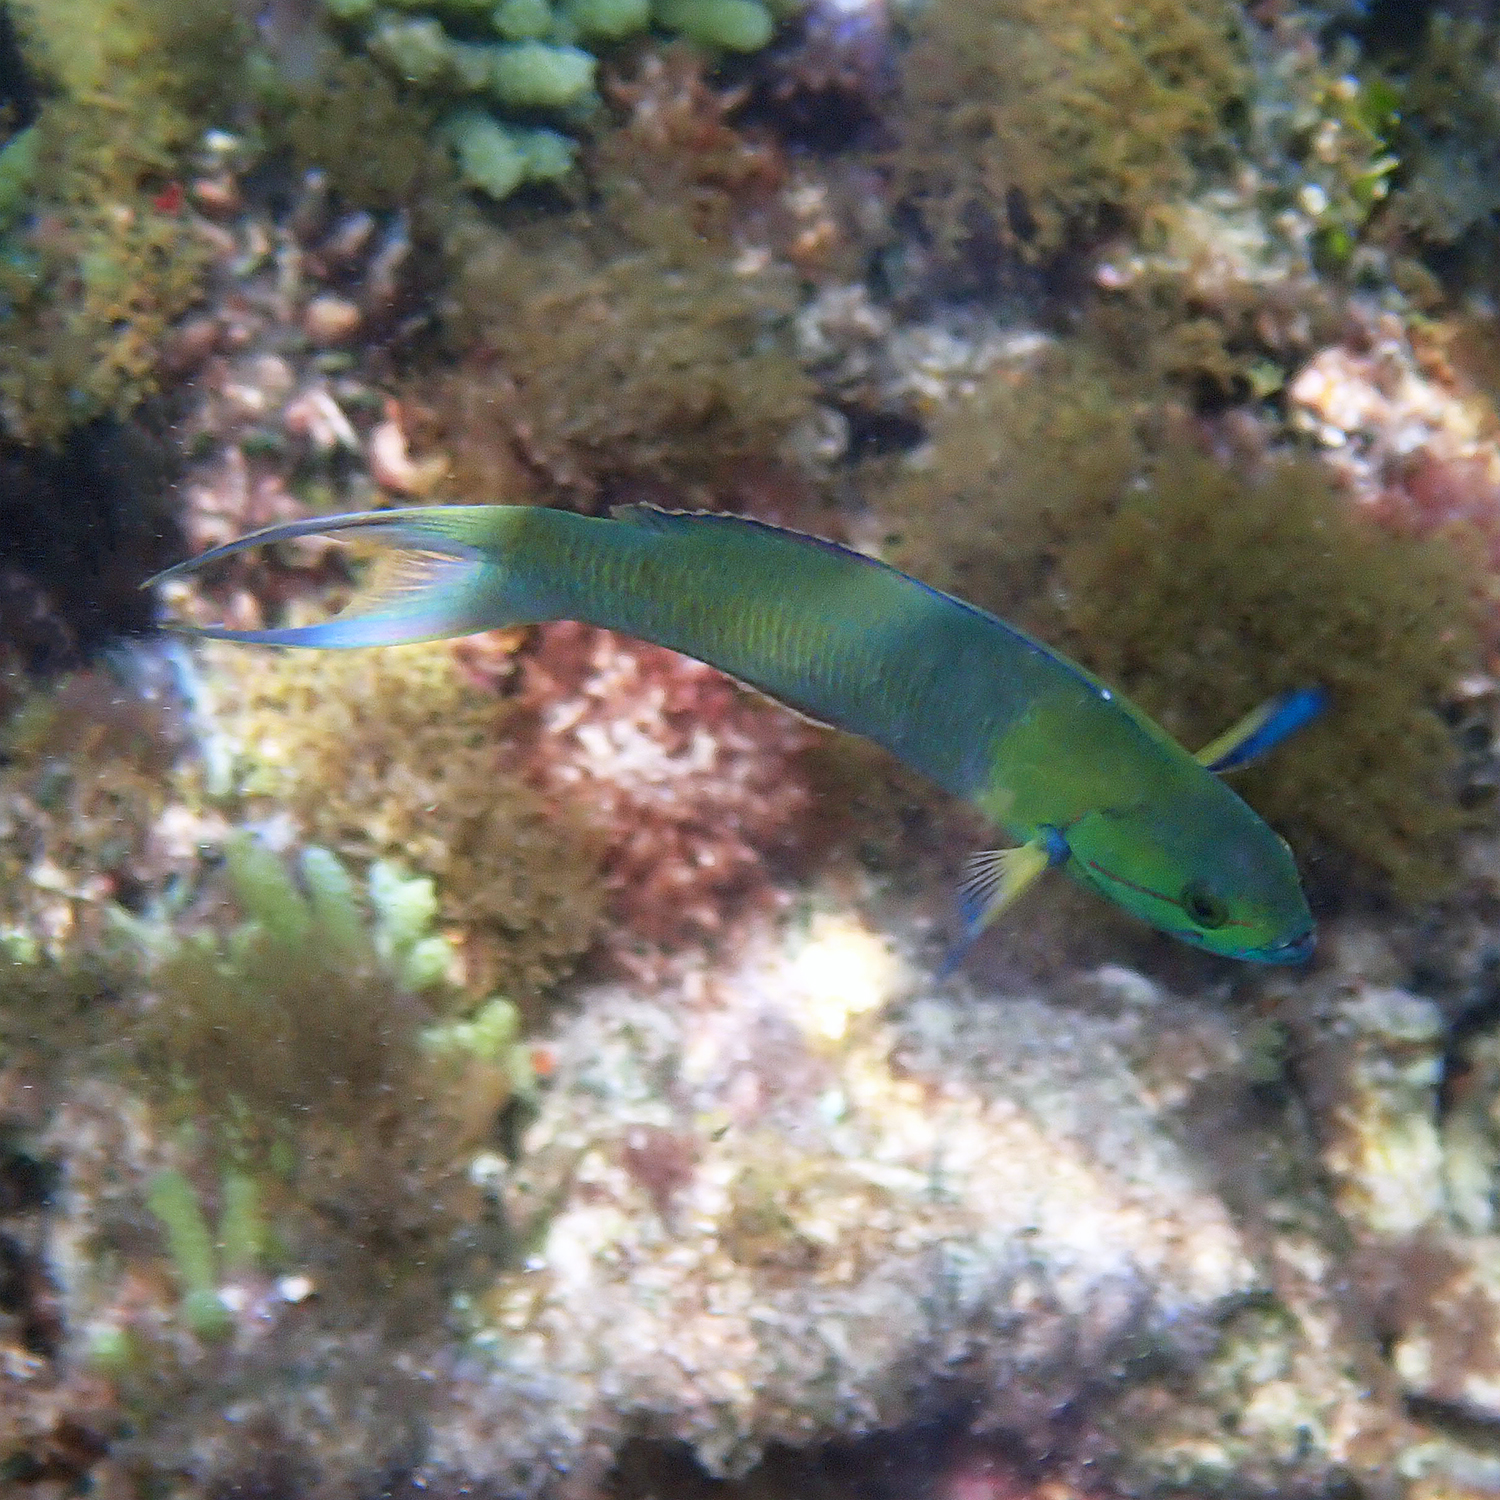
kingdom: Animalia
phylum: Chordata
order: Perciformes
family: Labridae
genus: Thalassoma
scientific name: Thalassoma amblycephalum
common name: Bluehead wrasse
